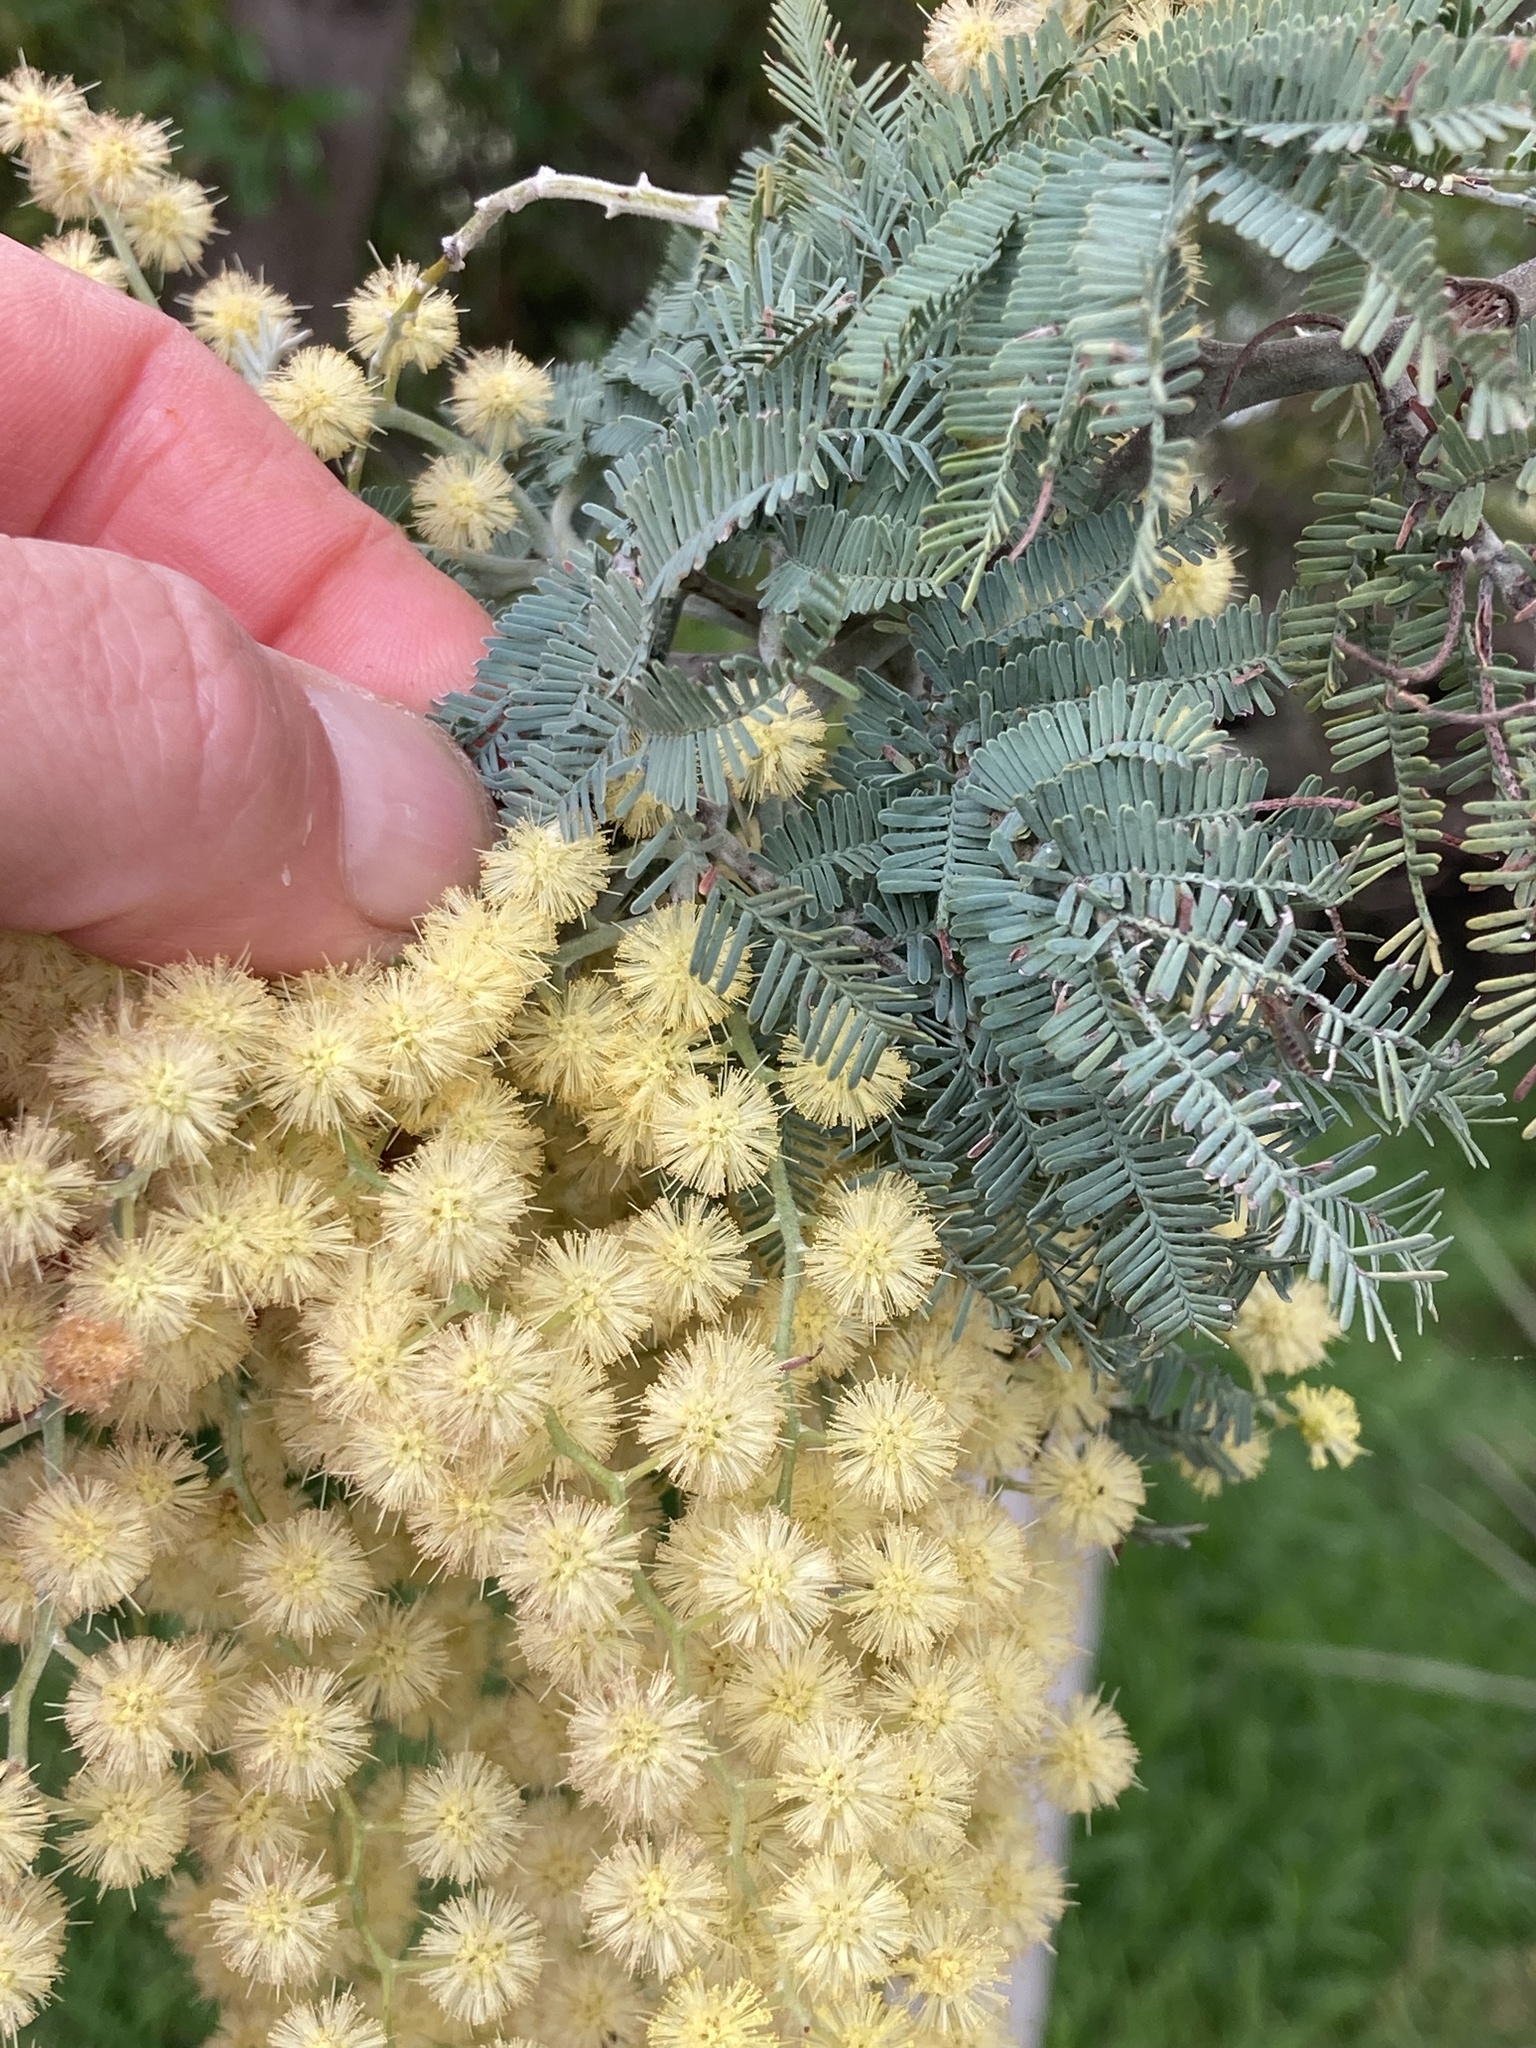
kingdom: Plantae
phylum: Tracheophyta
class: Magnoliopsida
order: Fabales
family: Fabaceae
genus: Acacia
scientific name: Acacia dealbata
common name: Silver wattle
